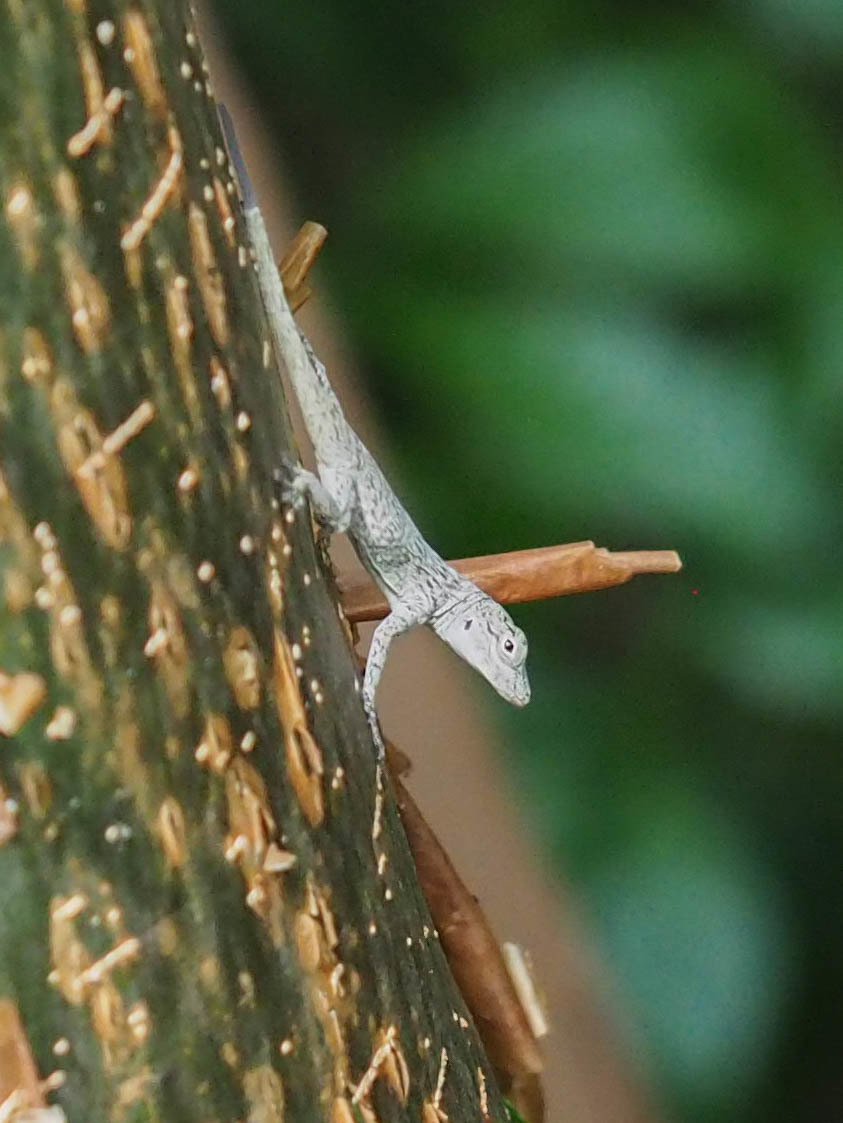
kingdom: Animalia
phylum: Chordata
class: Squamata
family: Dactyloidae
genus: Anolis
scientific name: Anolis distichus
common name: Bark anole
